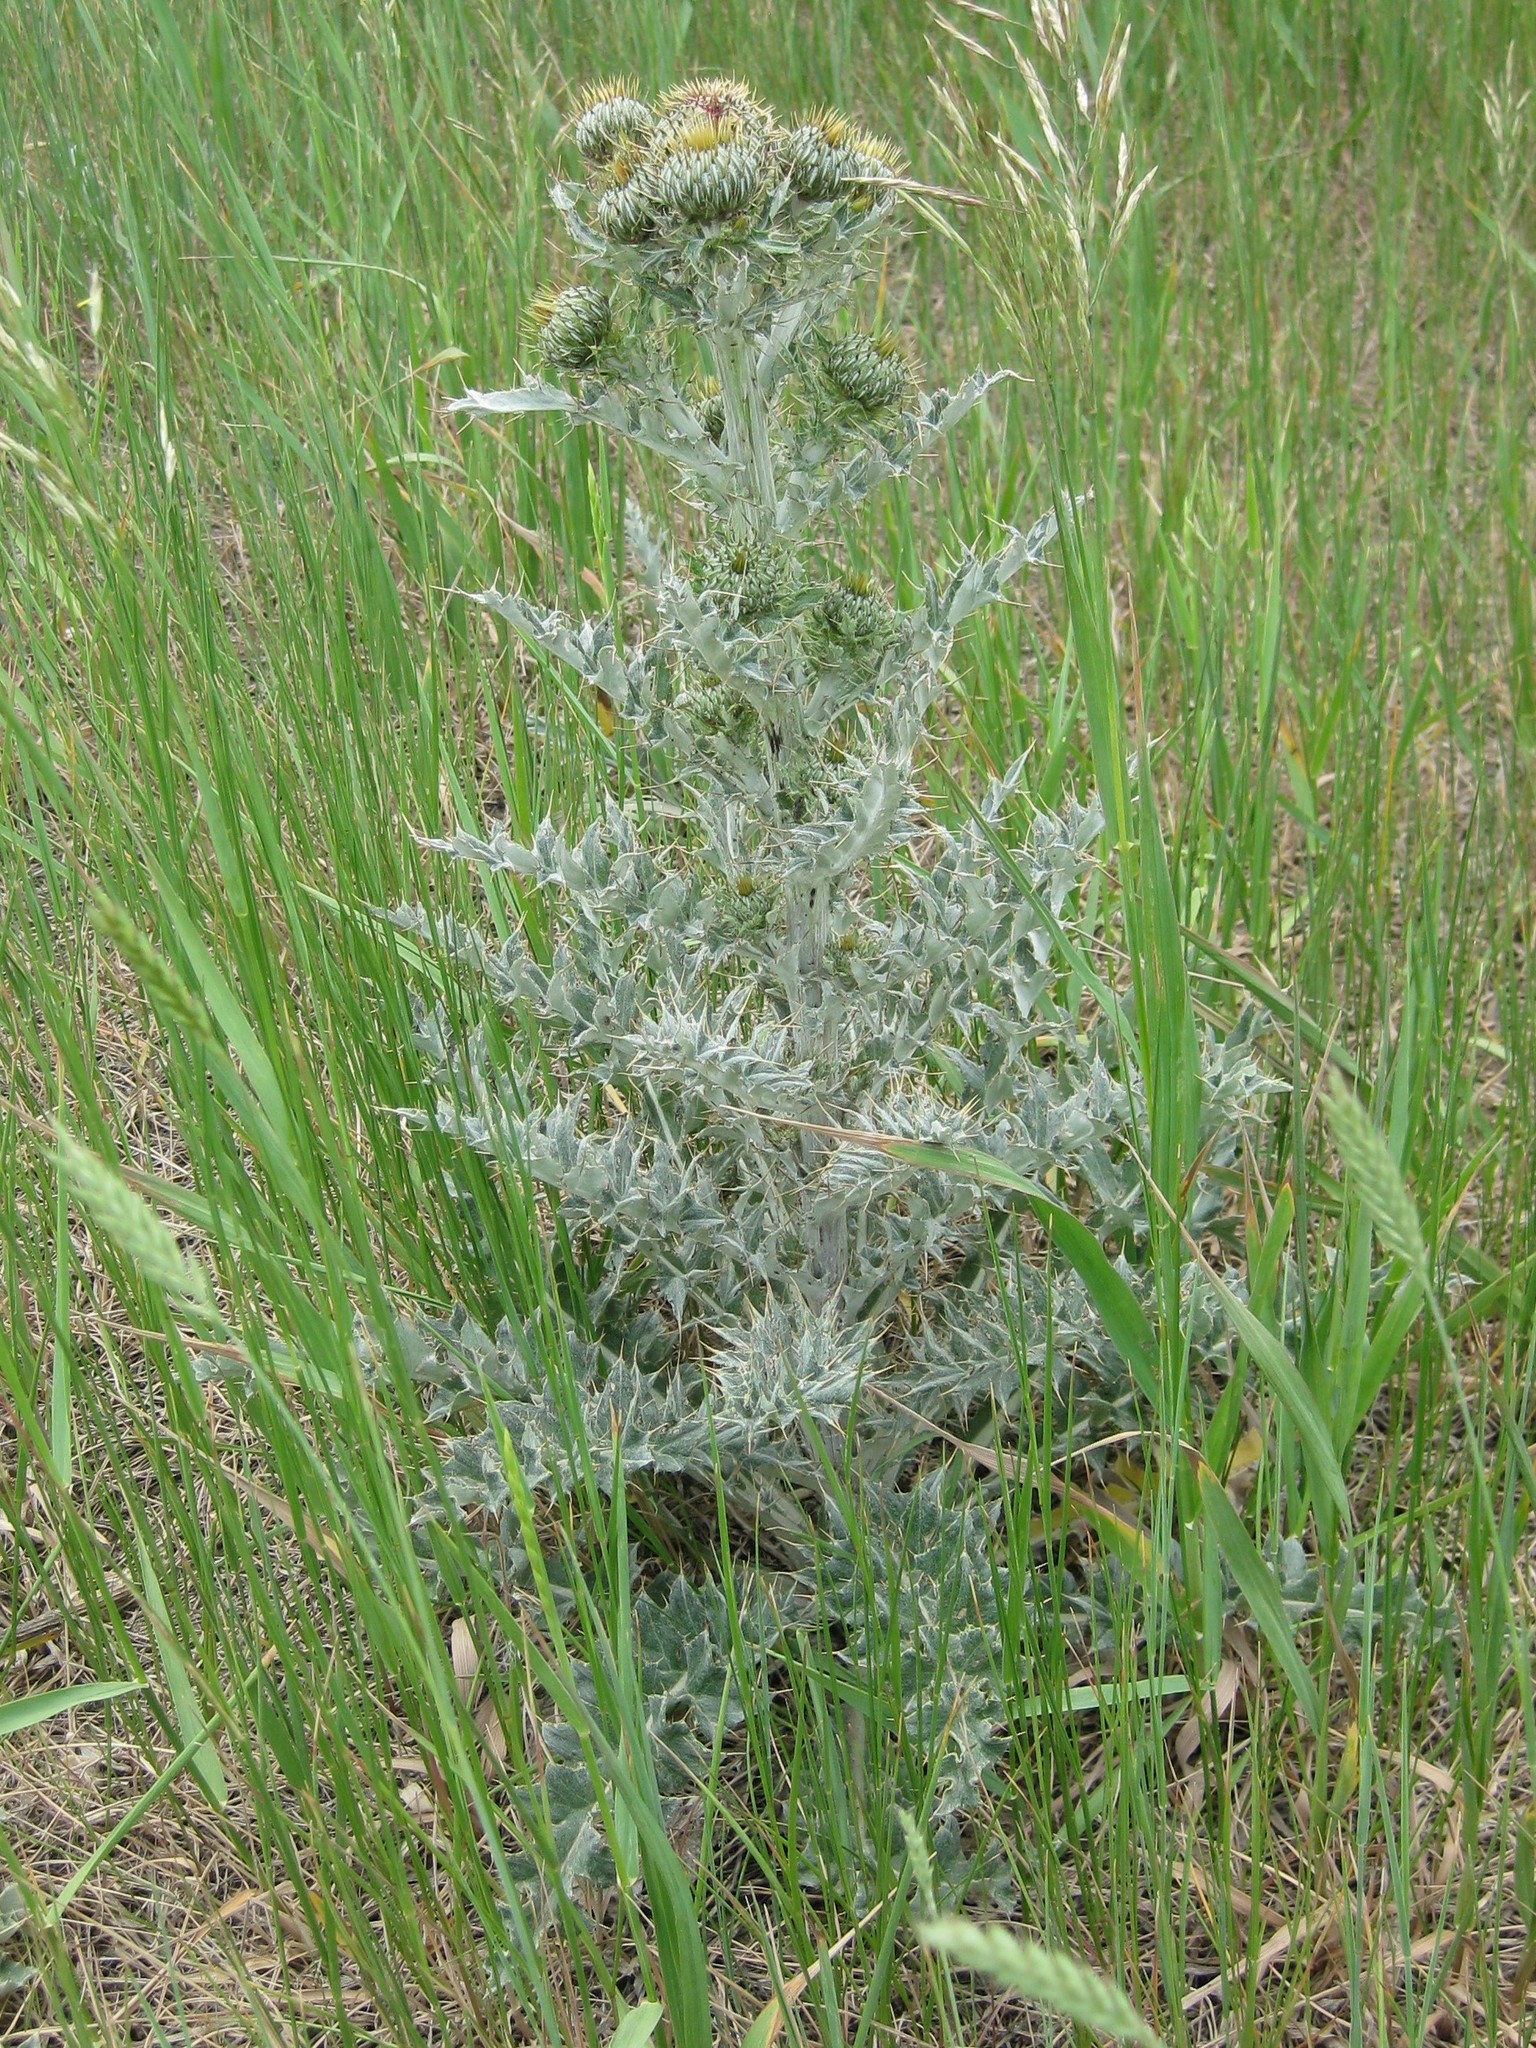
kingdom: Plantae
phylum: Tracheophyta
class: Magnoliopsida
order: Asterales
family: Asteraceae
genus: Cirsium
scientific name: Cirsium undulatum
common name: Pasture thistle
